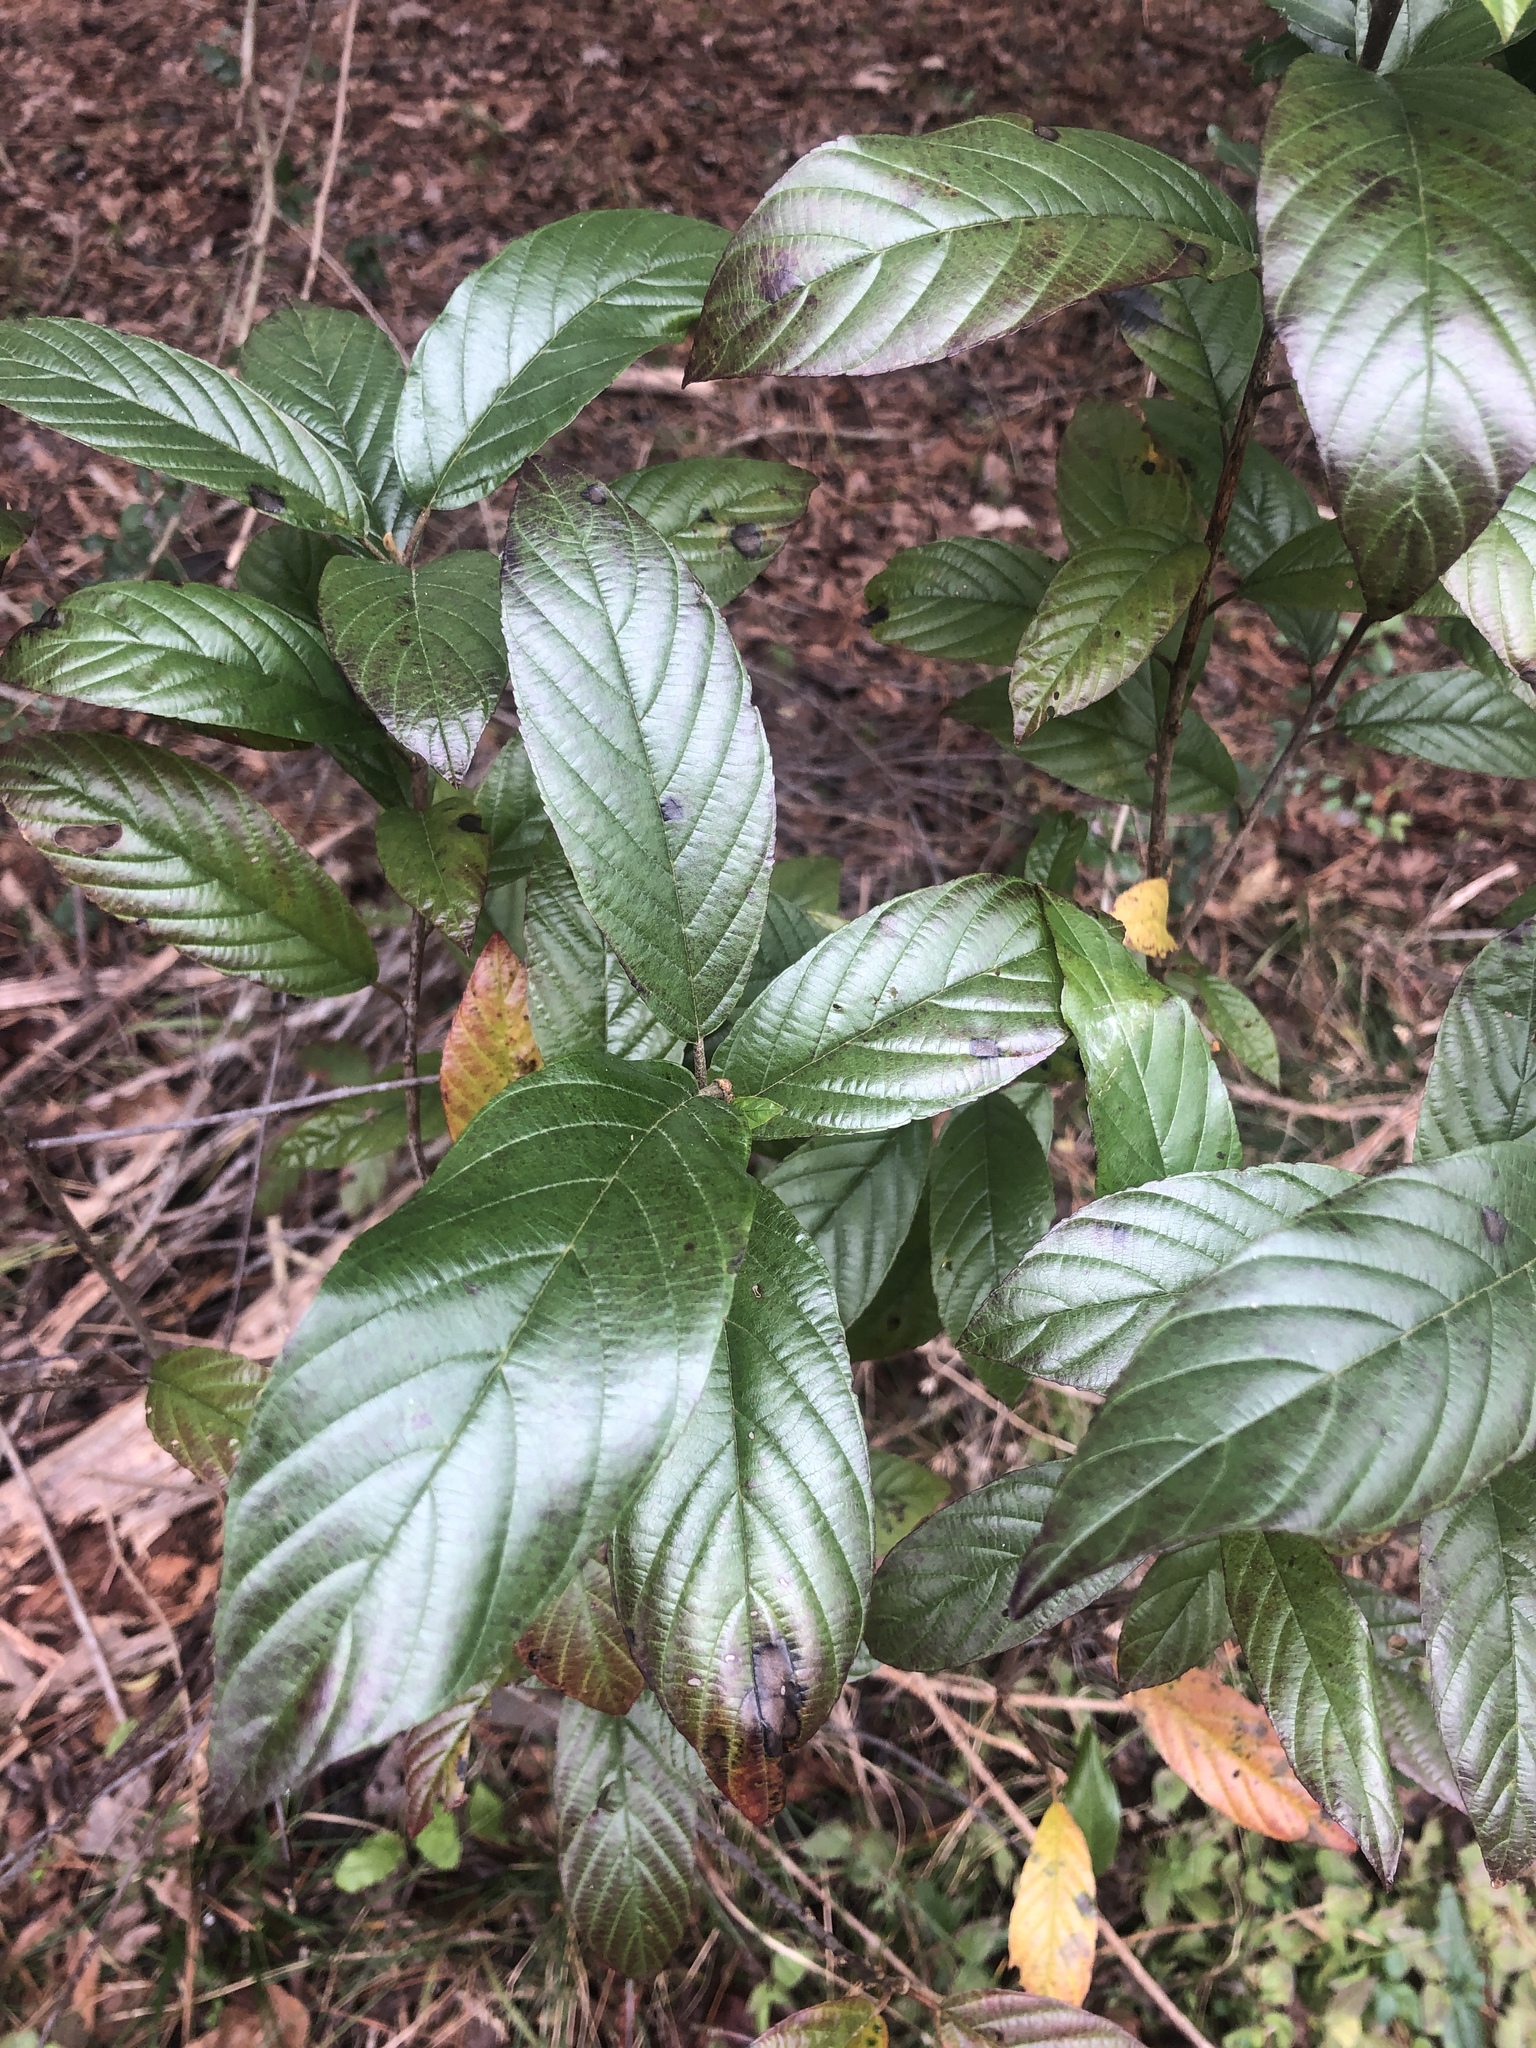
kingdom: Plantae
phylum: Tracheophyta
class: Magnoliopsida
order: Rosales
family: Rhamnaceae
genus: Frangula
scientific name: Frangula caroliniana
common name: Carolina buckthorn
